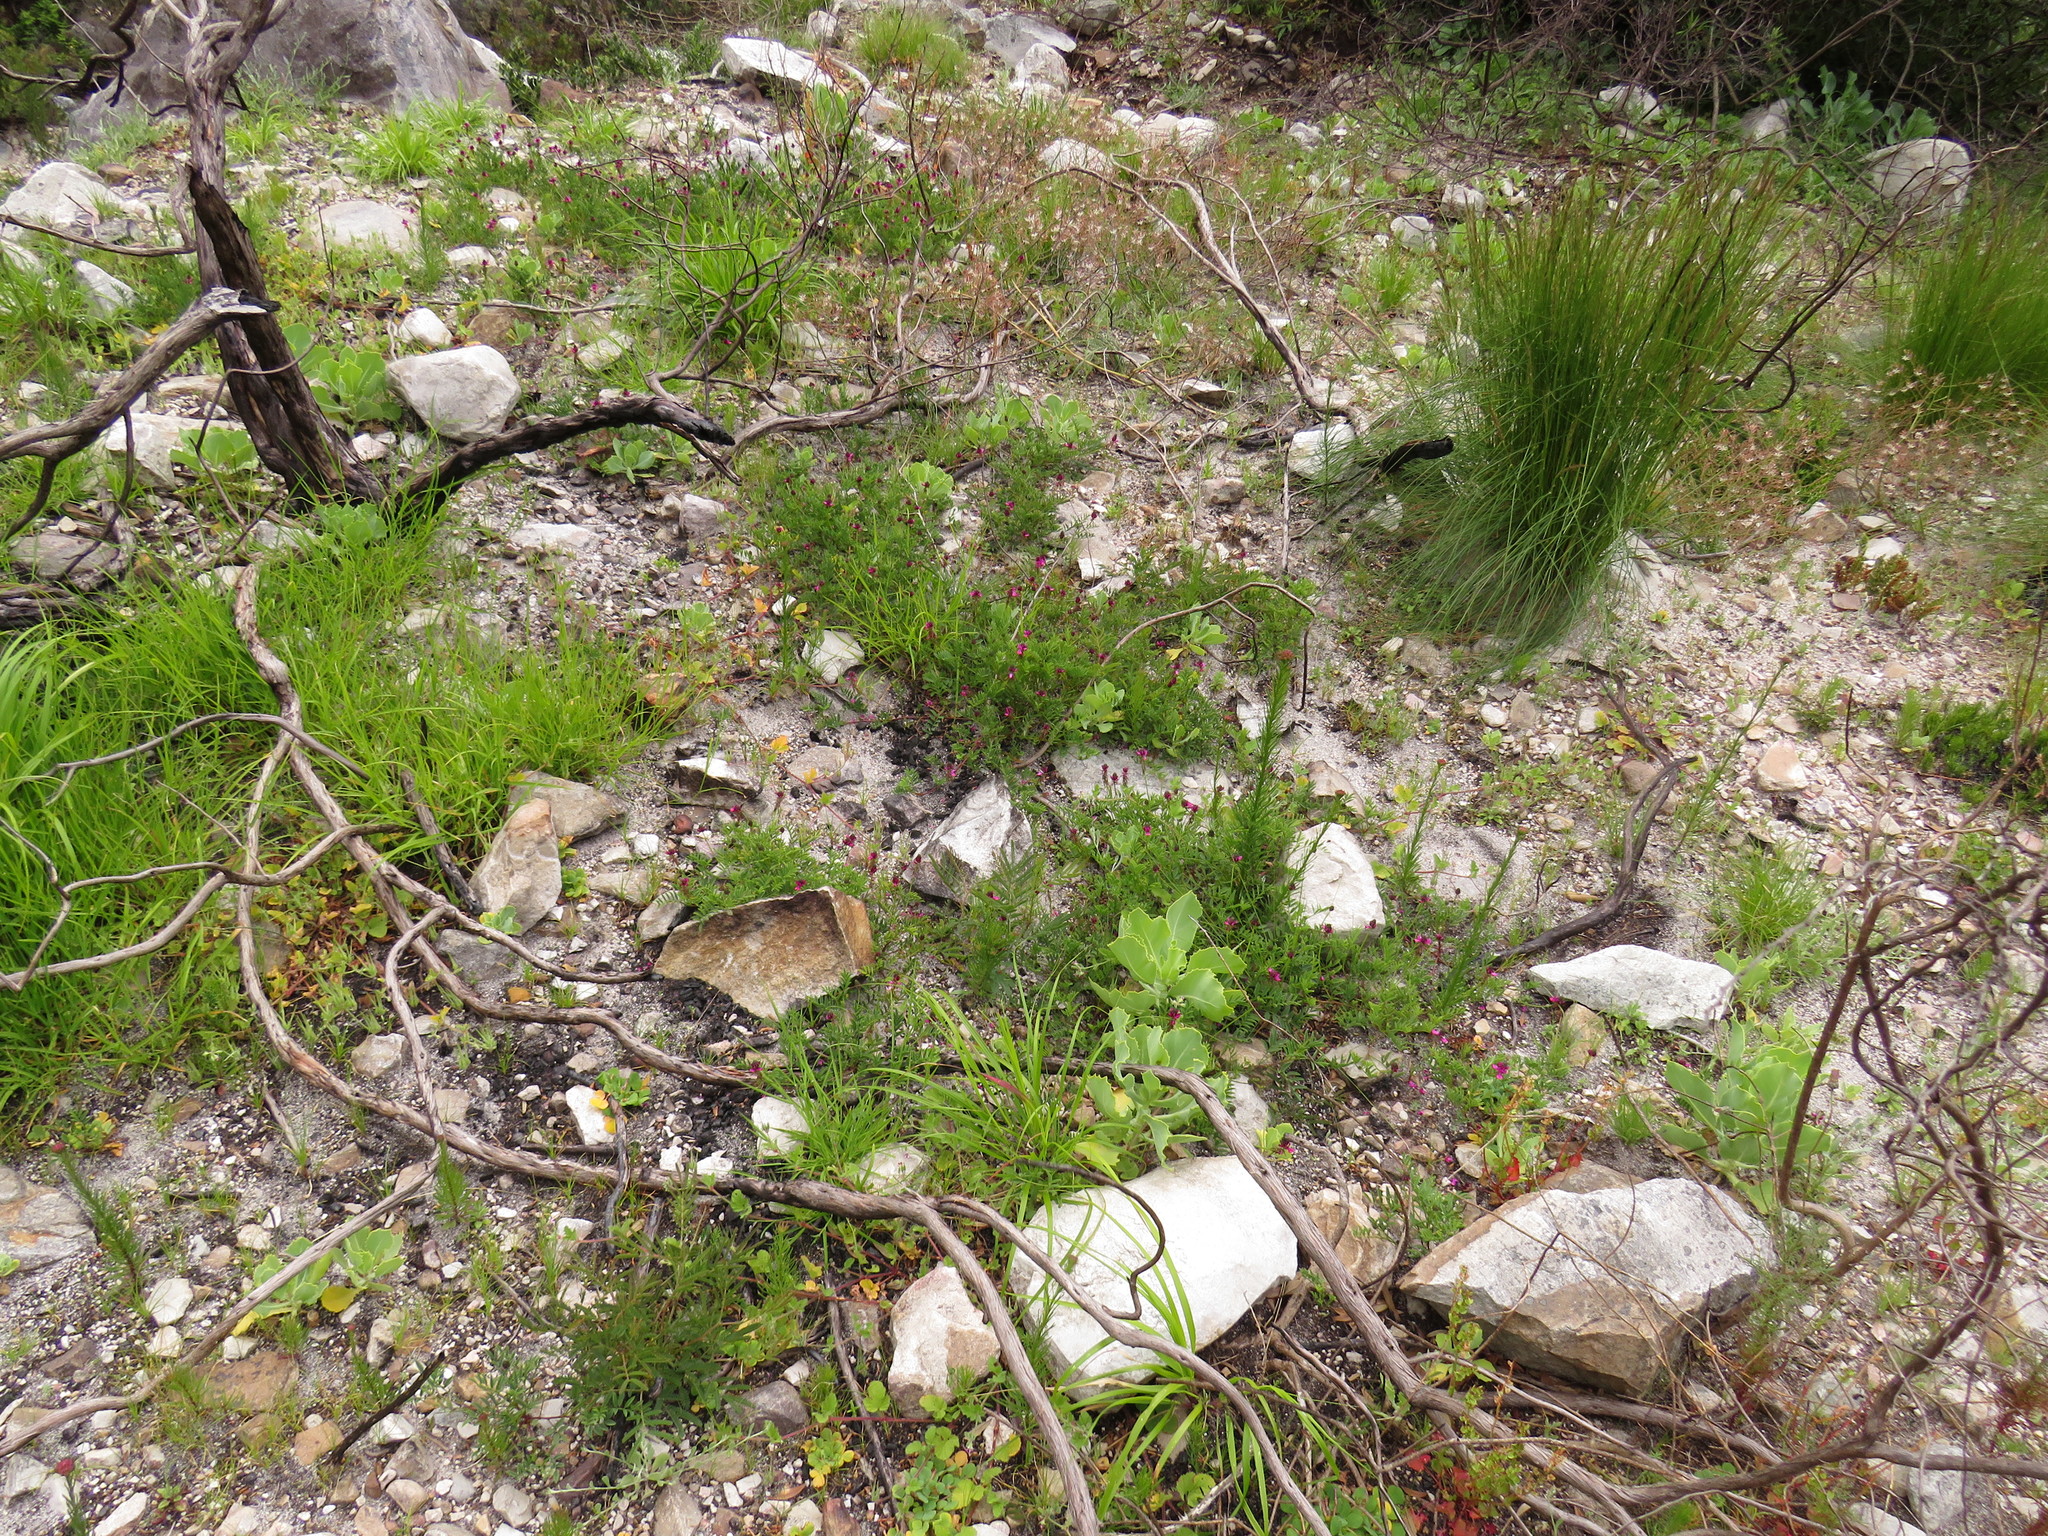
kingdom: Plantae
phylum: Tracheophyta
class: Magnoliopsida
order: Fabales
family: Fabaceae
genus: Indigofera
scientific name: Indigofera capillaris
